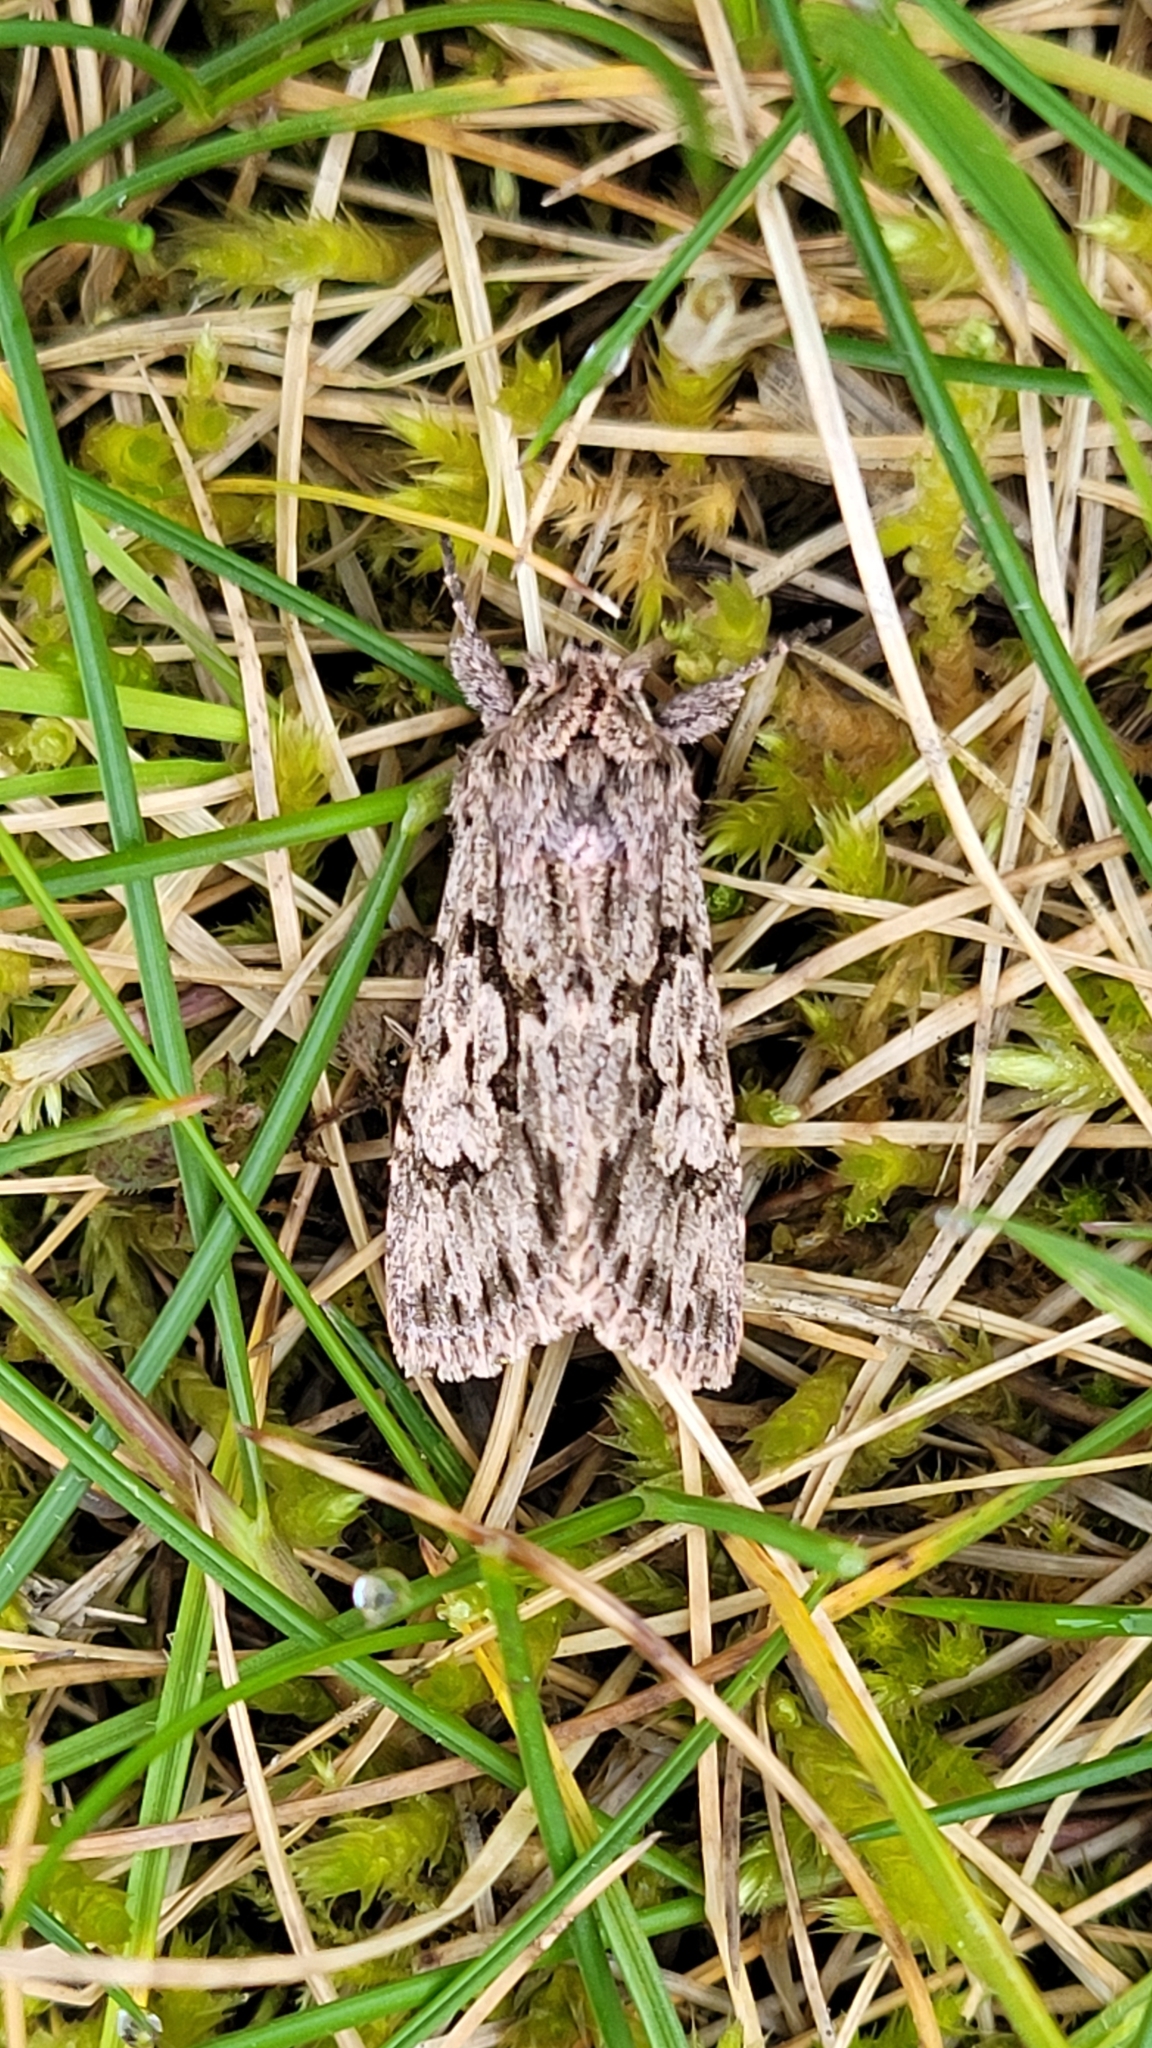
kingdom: Animalia
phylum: Arthropoda
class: Insecta
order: Lepidoptera
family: Noctuidae
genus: Xylocampa
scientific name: Xylocampa areola
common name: Early grey
